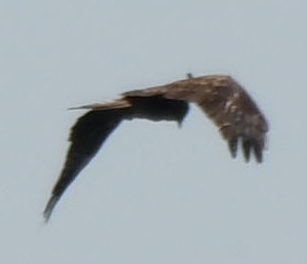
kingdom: Animalia
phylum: Chordata
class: Aves
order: Accipitriformes
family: Accipitridae
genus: Milvus
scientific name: Milvus migrans
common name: Black kite
